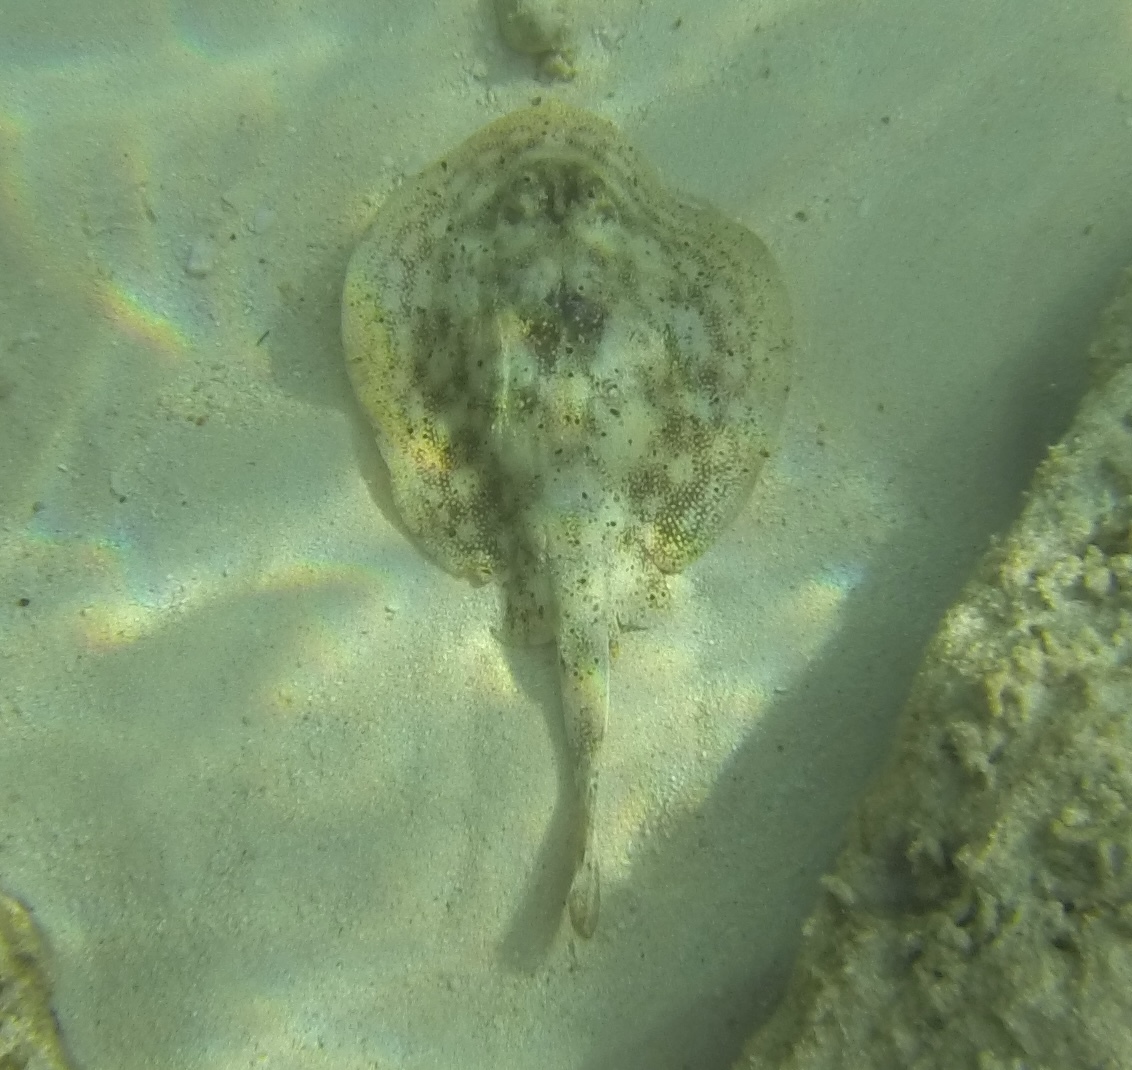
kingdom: Animalia
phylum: Chordata
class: Elasmobranchii
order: Myliobatiformes
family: Urotrygonidae
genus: Urobatis
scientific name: Urobatis jamaicensis
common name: Yellow stingray
